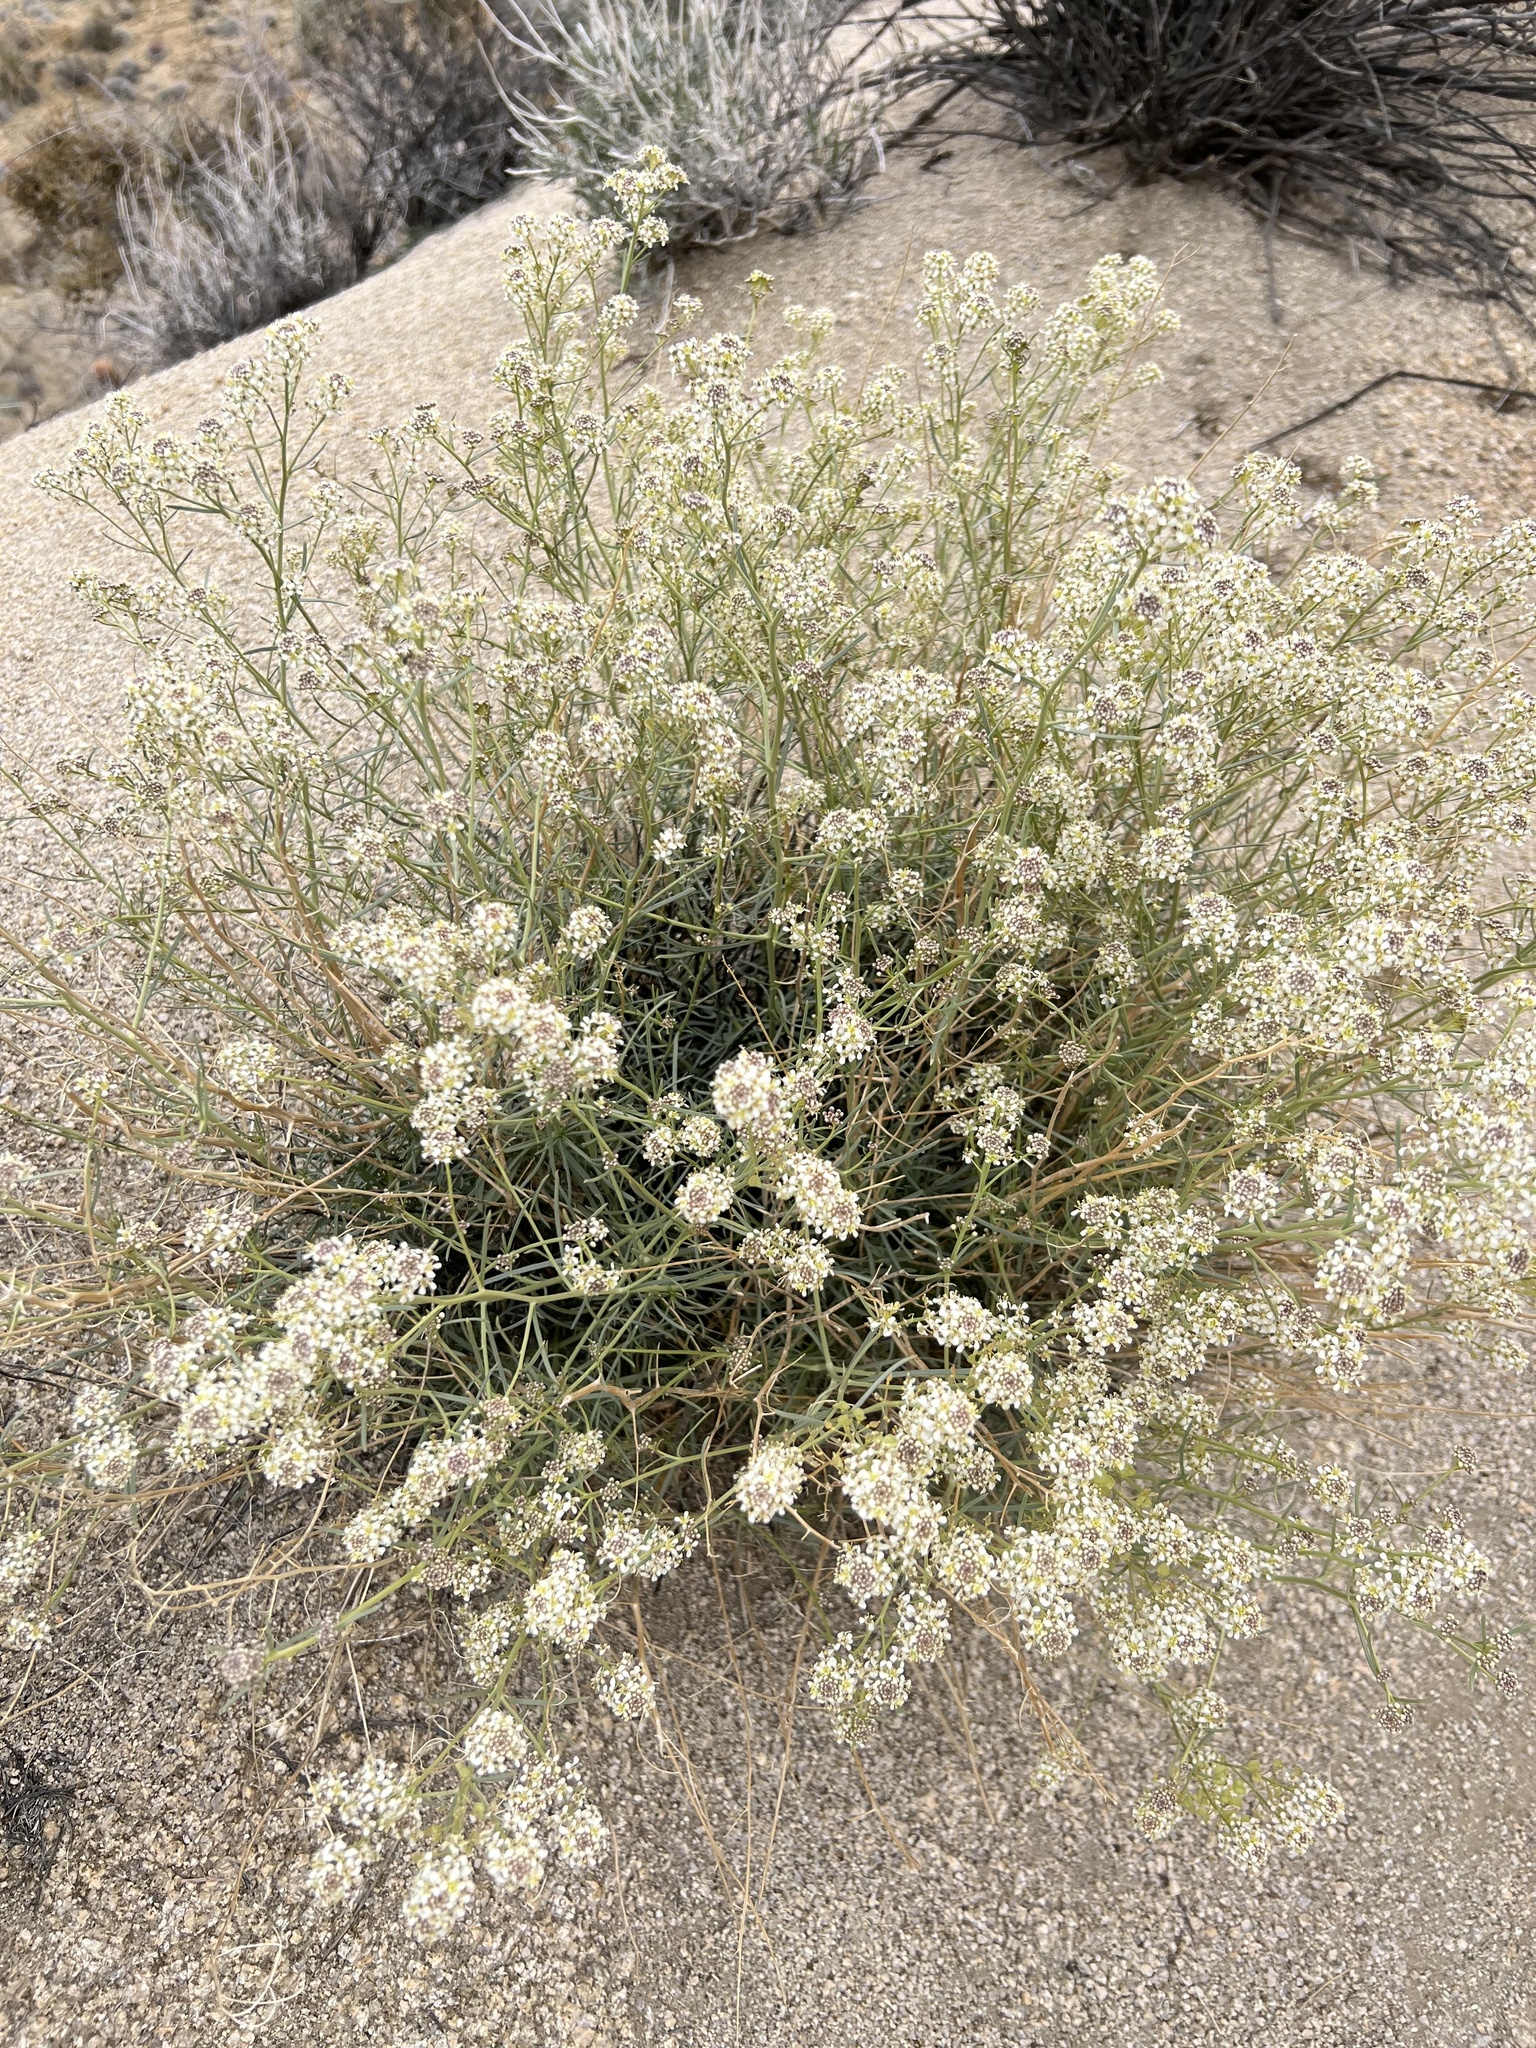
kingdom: Plantae
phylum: Tracheophyta
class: Magnoliopsida
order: Brassicales
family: Brassicaceae
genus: Lepidium
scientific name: Lepidium fremontii
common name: Fremont's pepperwort
